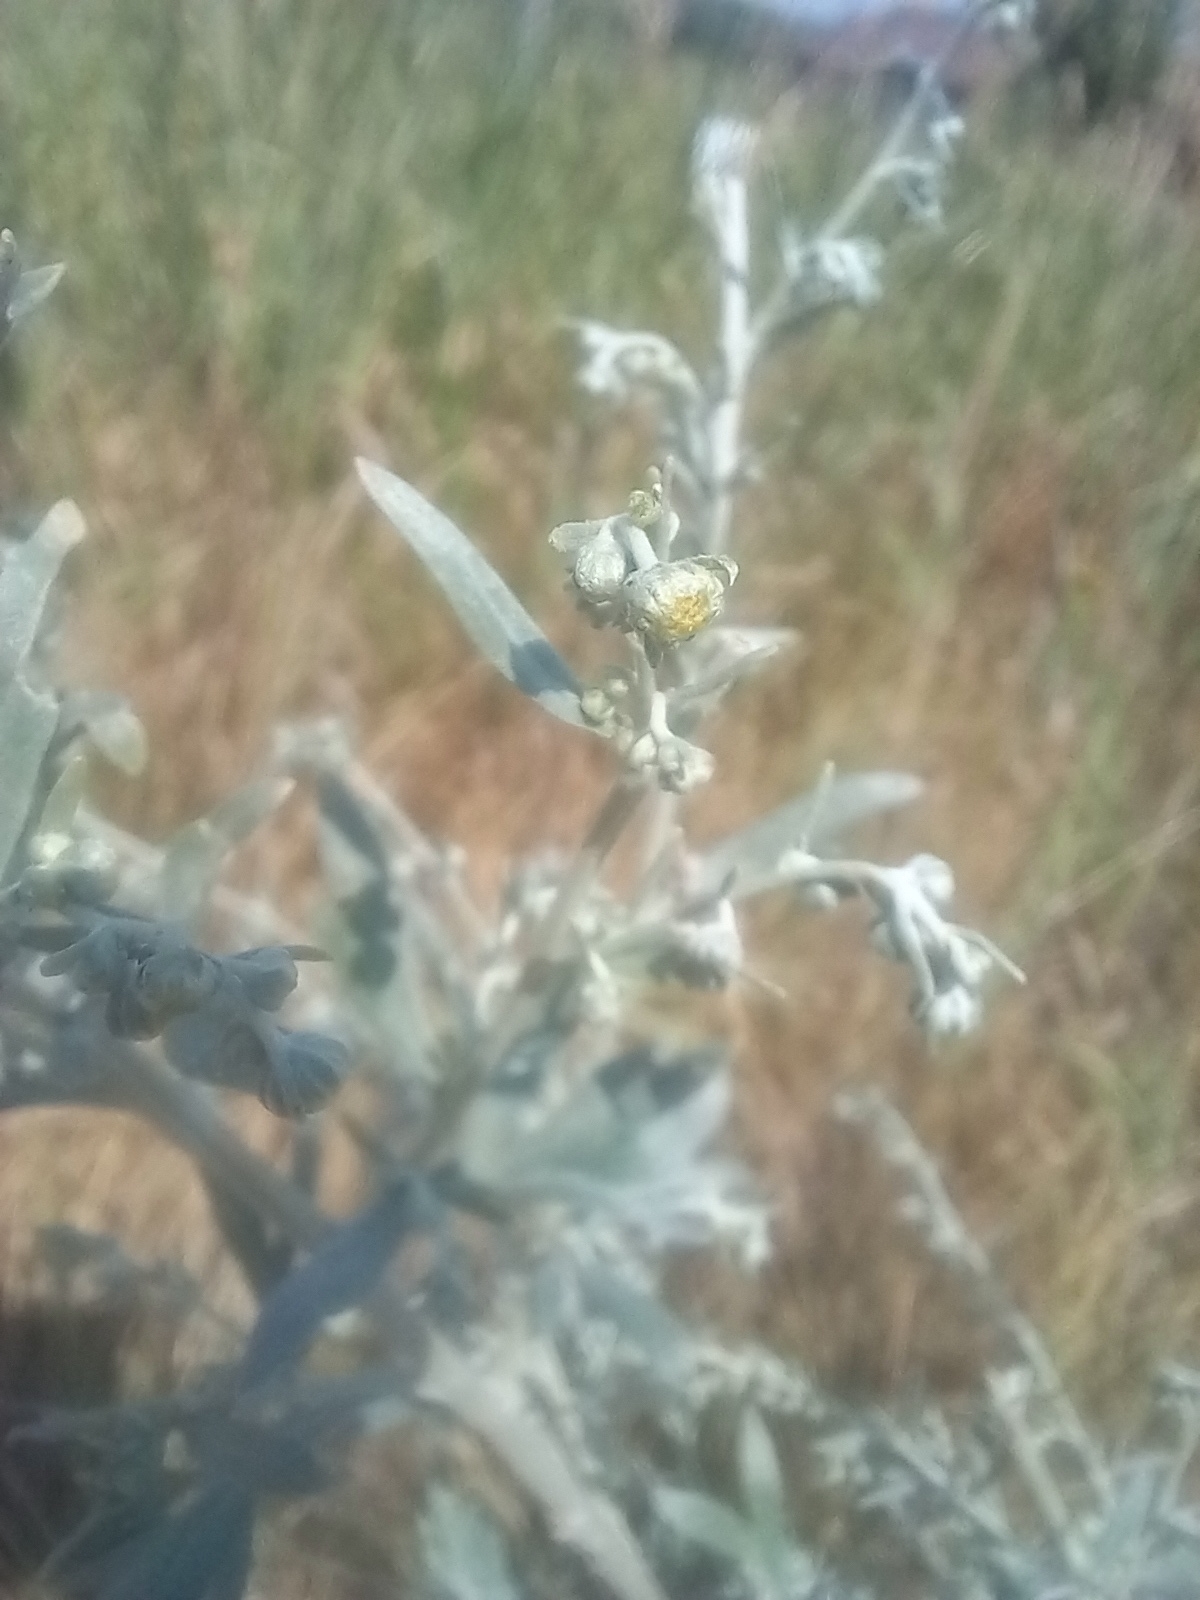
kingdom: Plantae
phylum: Tracheophyta
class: Magnoliopsida
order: Asterales
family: Asteraceae
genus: Artemisia
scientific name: Artemisia absinthium
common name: Wormwood
